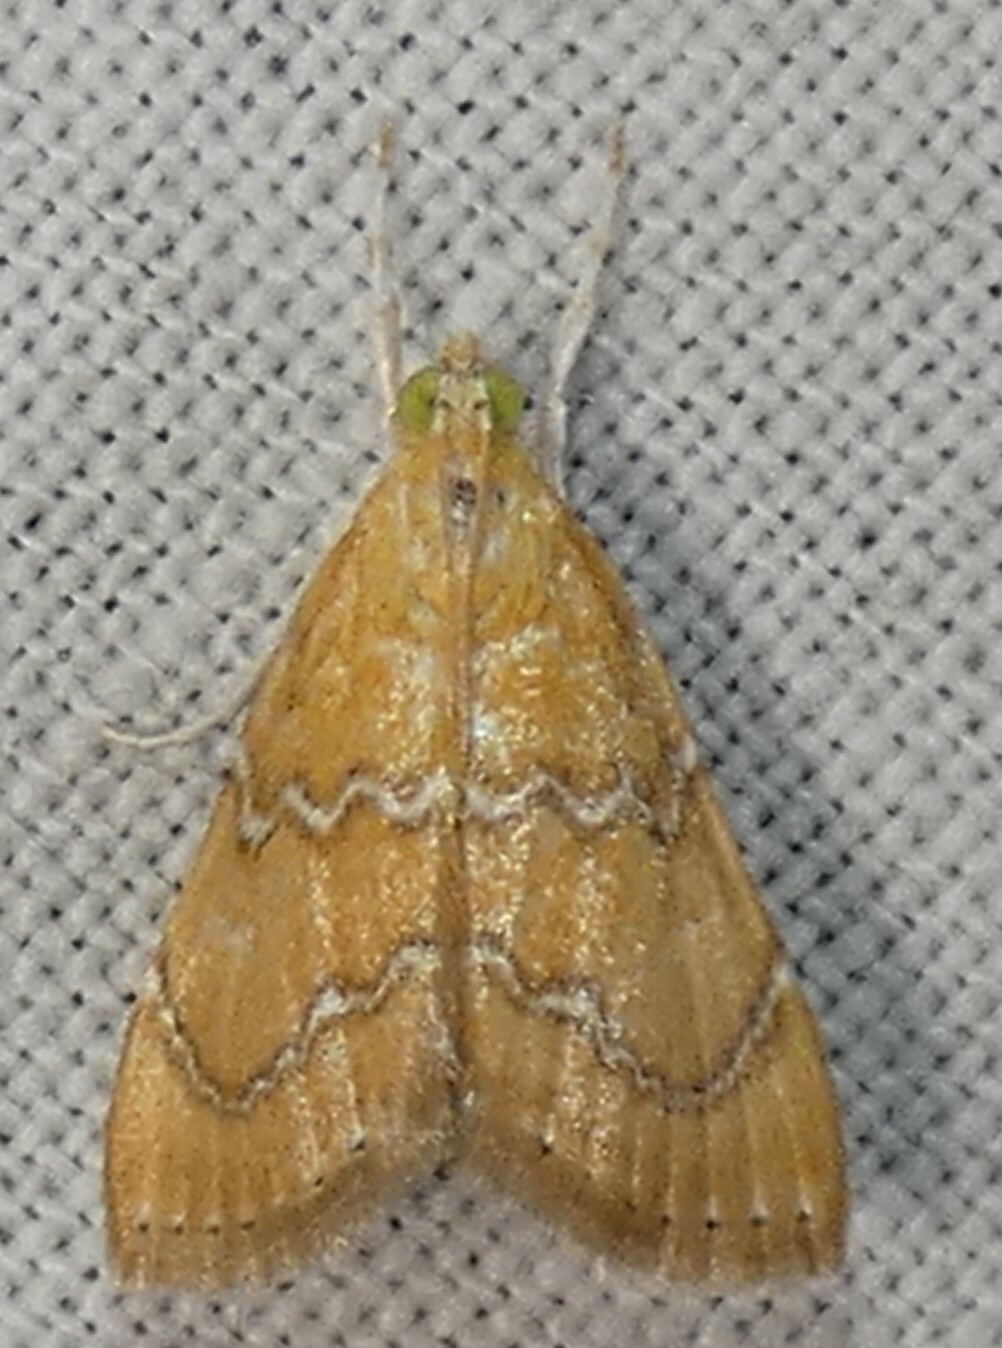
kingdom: Animalia
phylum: Arthropoda
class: Insecta
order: Lepidoptera
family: Crambidae
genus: Glaphyria
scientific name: Glaphyria sesquistrialis
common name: White-roped glaphyria
